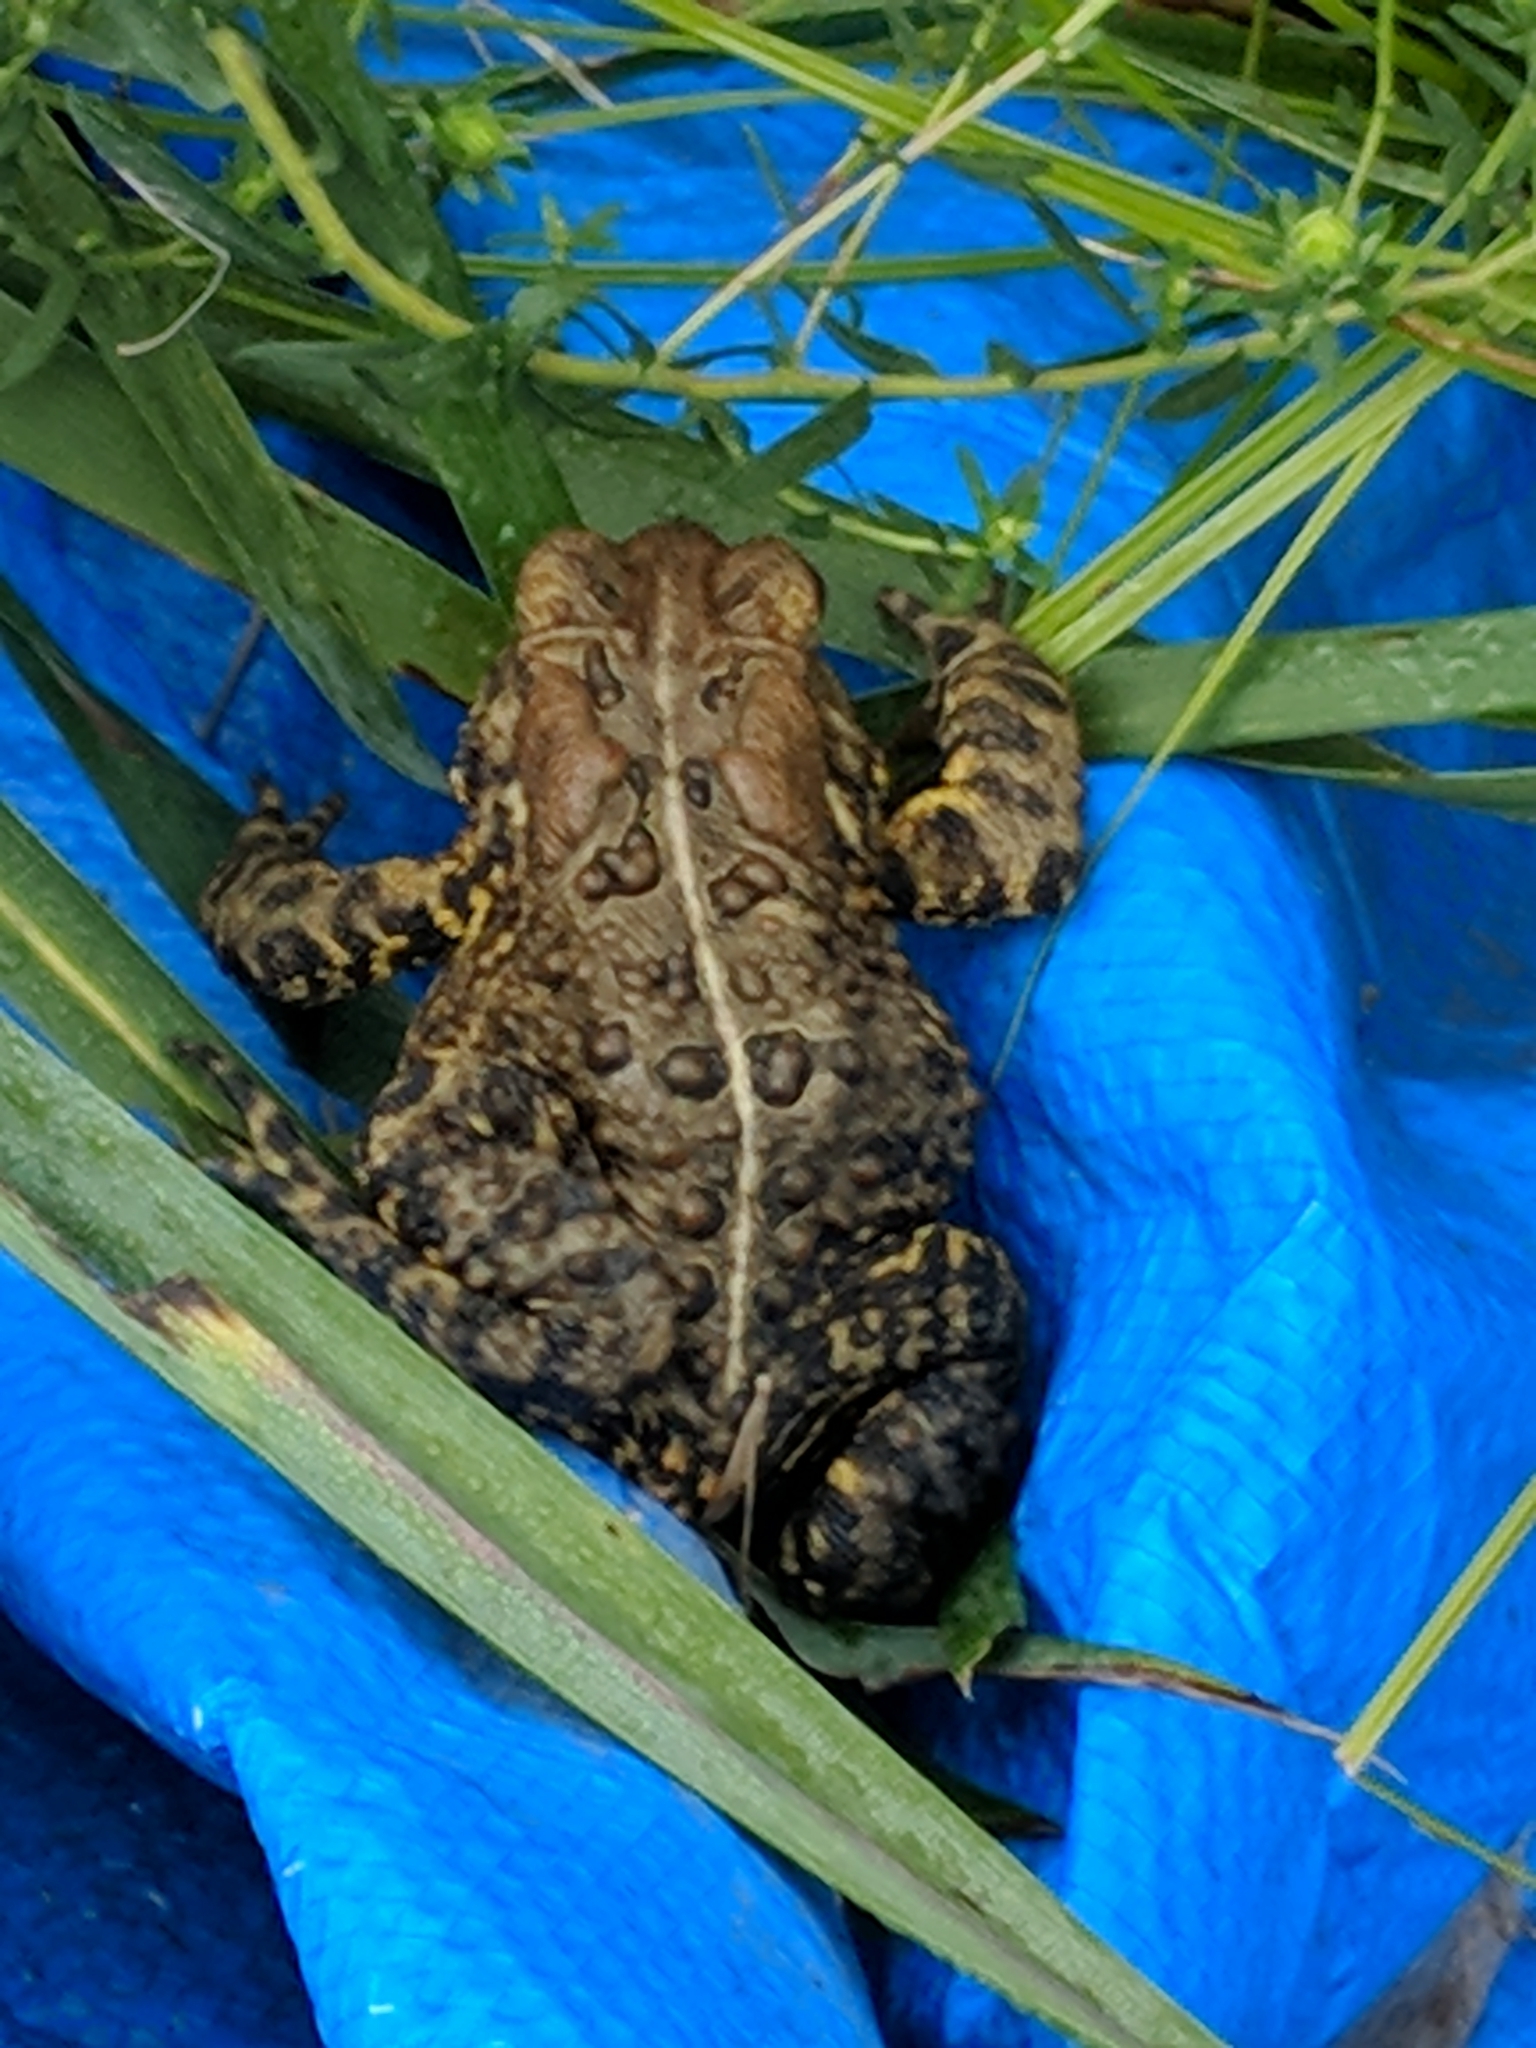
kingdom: Animalia
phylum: Chordata
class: Amphibia
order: Anura
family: Bufonidae
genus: Anaxyrus
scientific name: Anaxyrus americanus
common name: American toad
